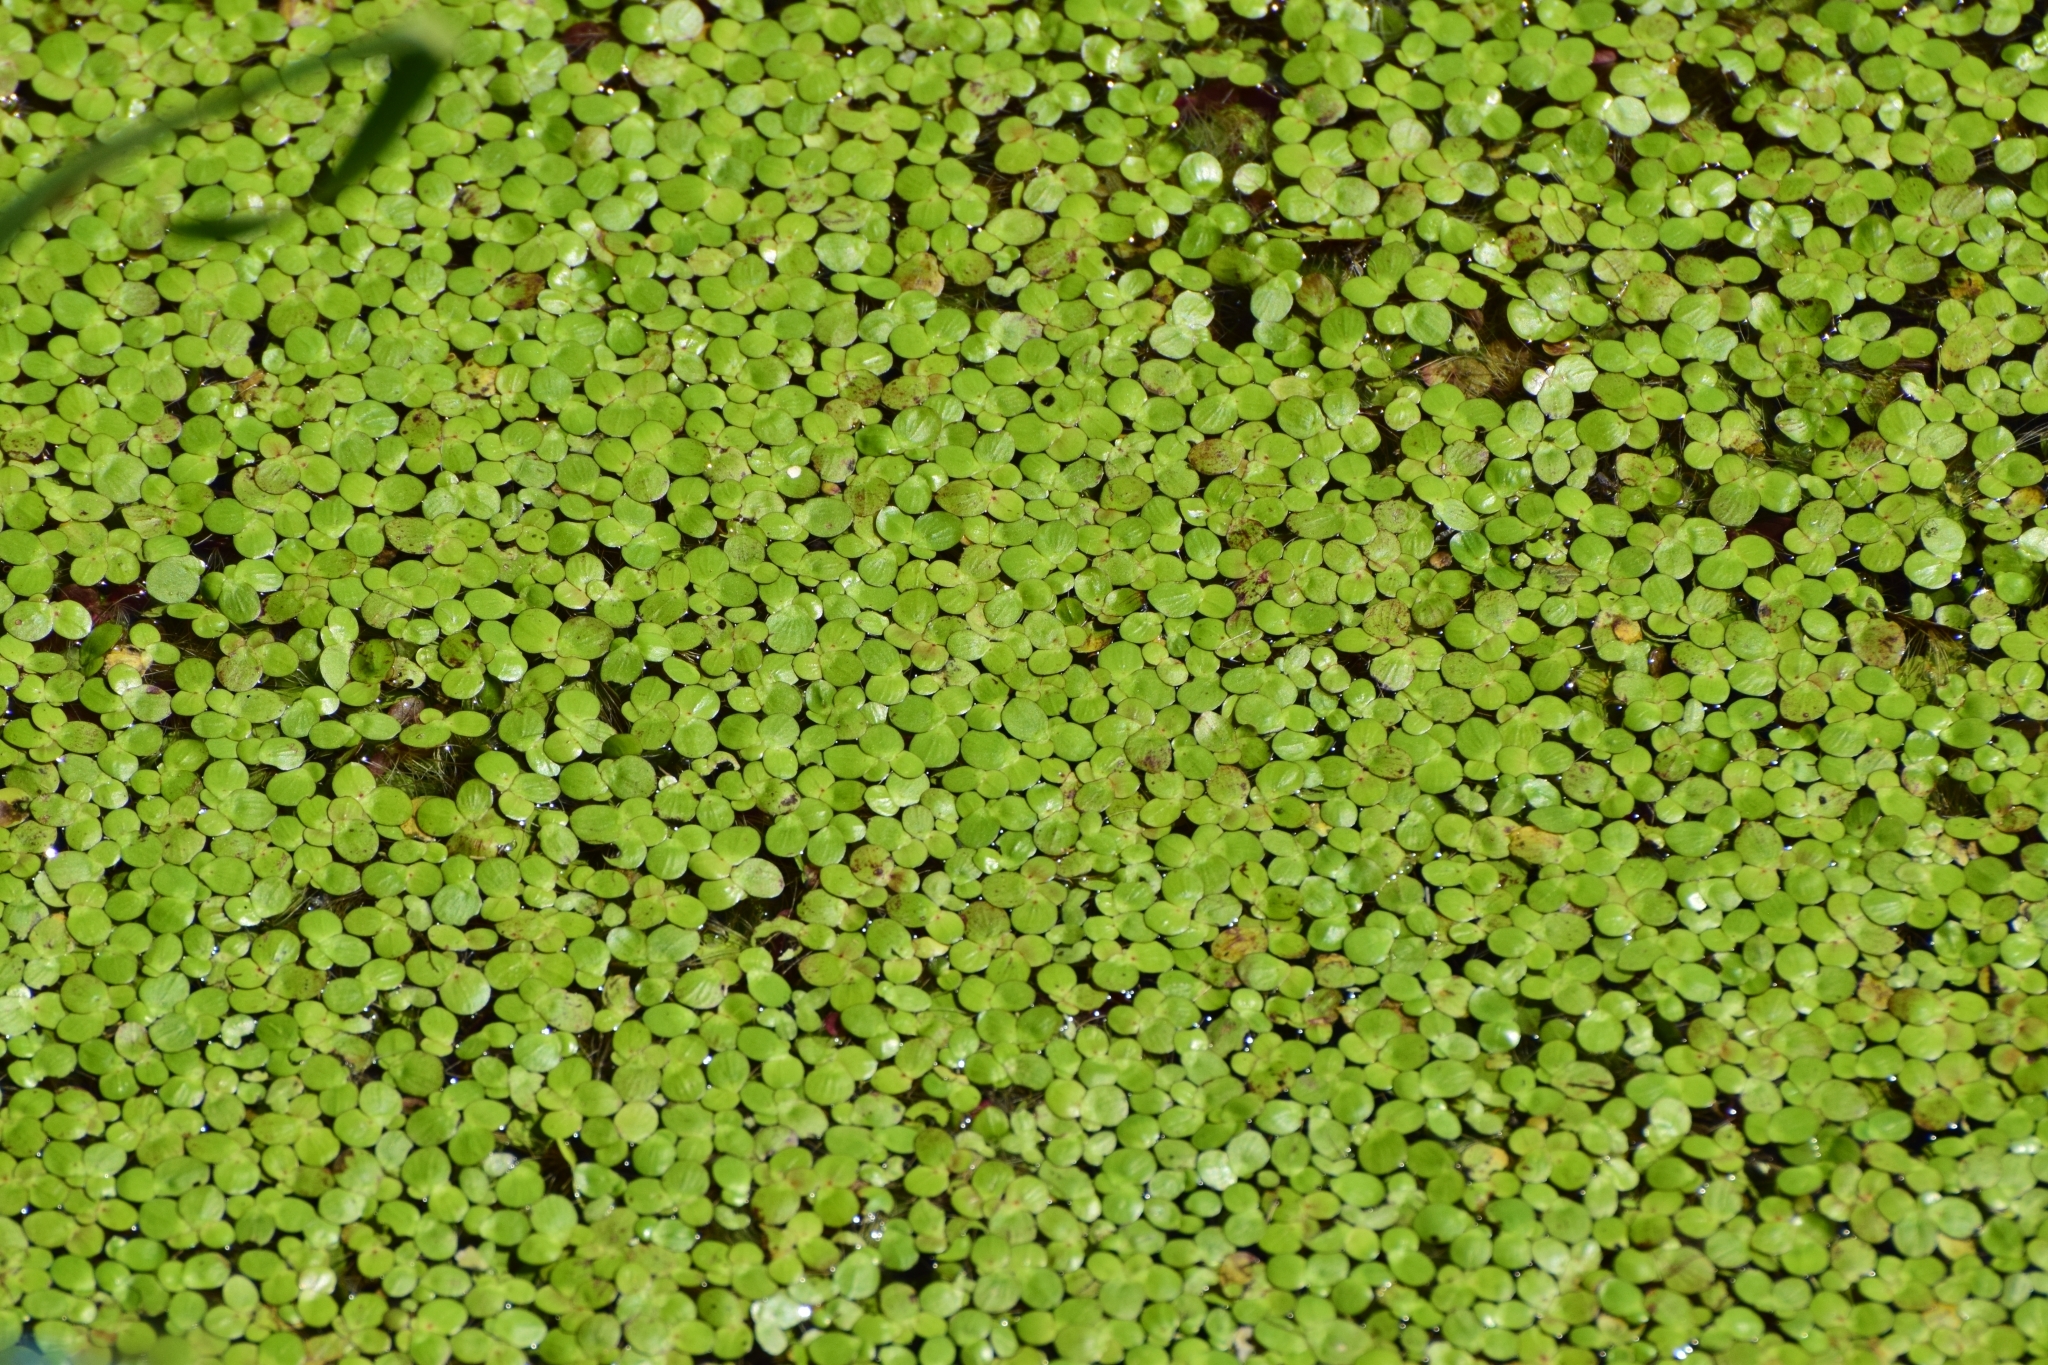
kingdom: Plantae
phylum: Tracheophyta
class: Liliopsida
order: Alismatales
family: Araceae
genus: Spirodela
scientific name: Spirodela polyrhiza
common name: Great duckweed
